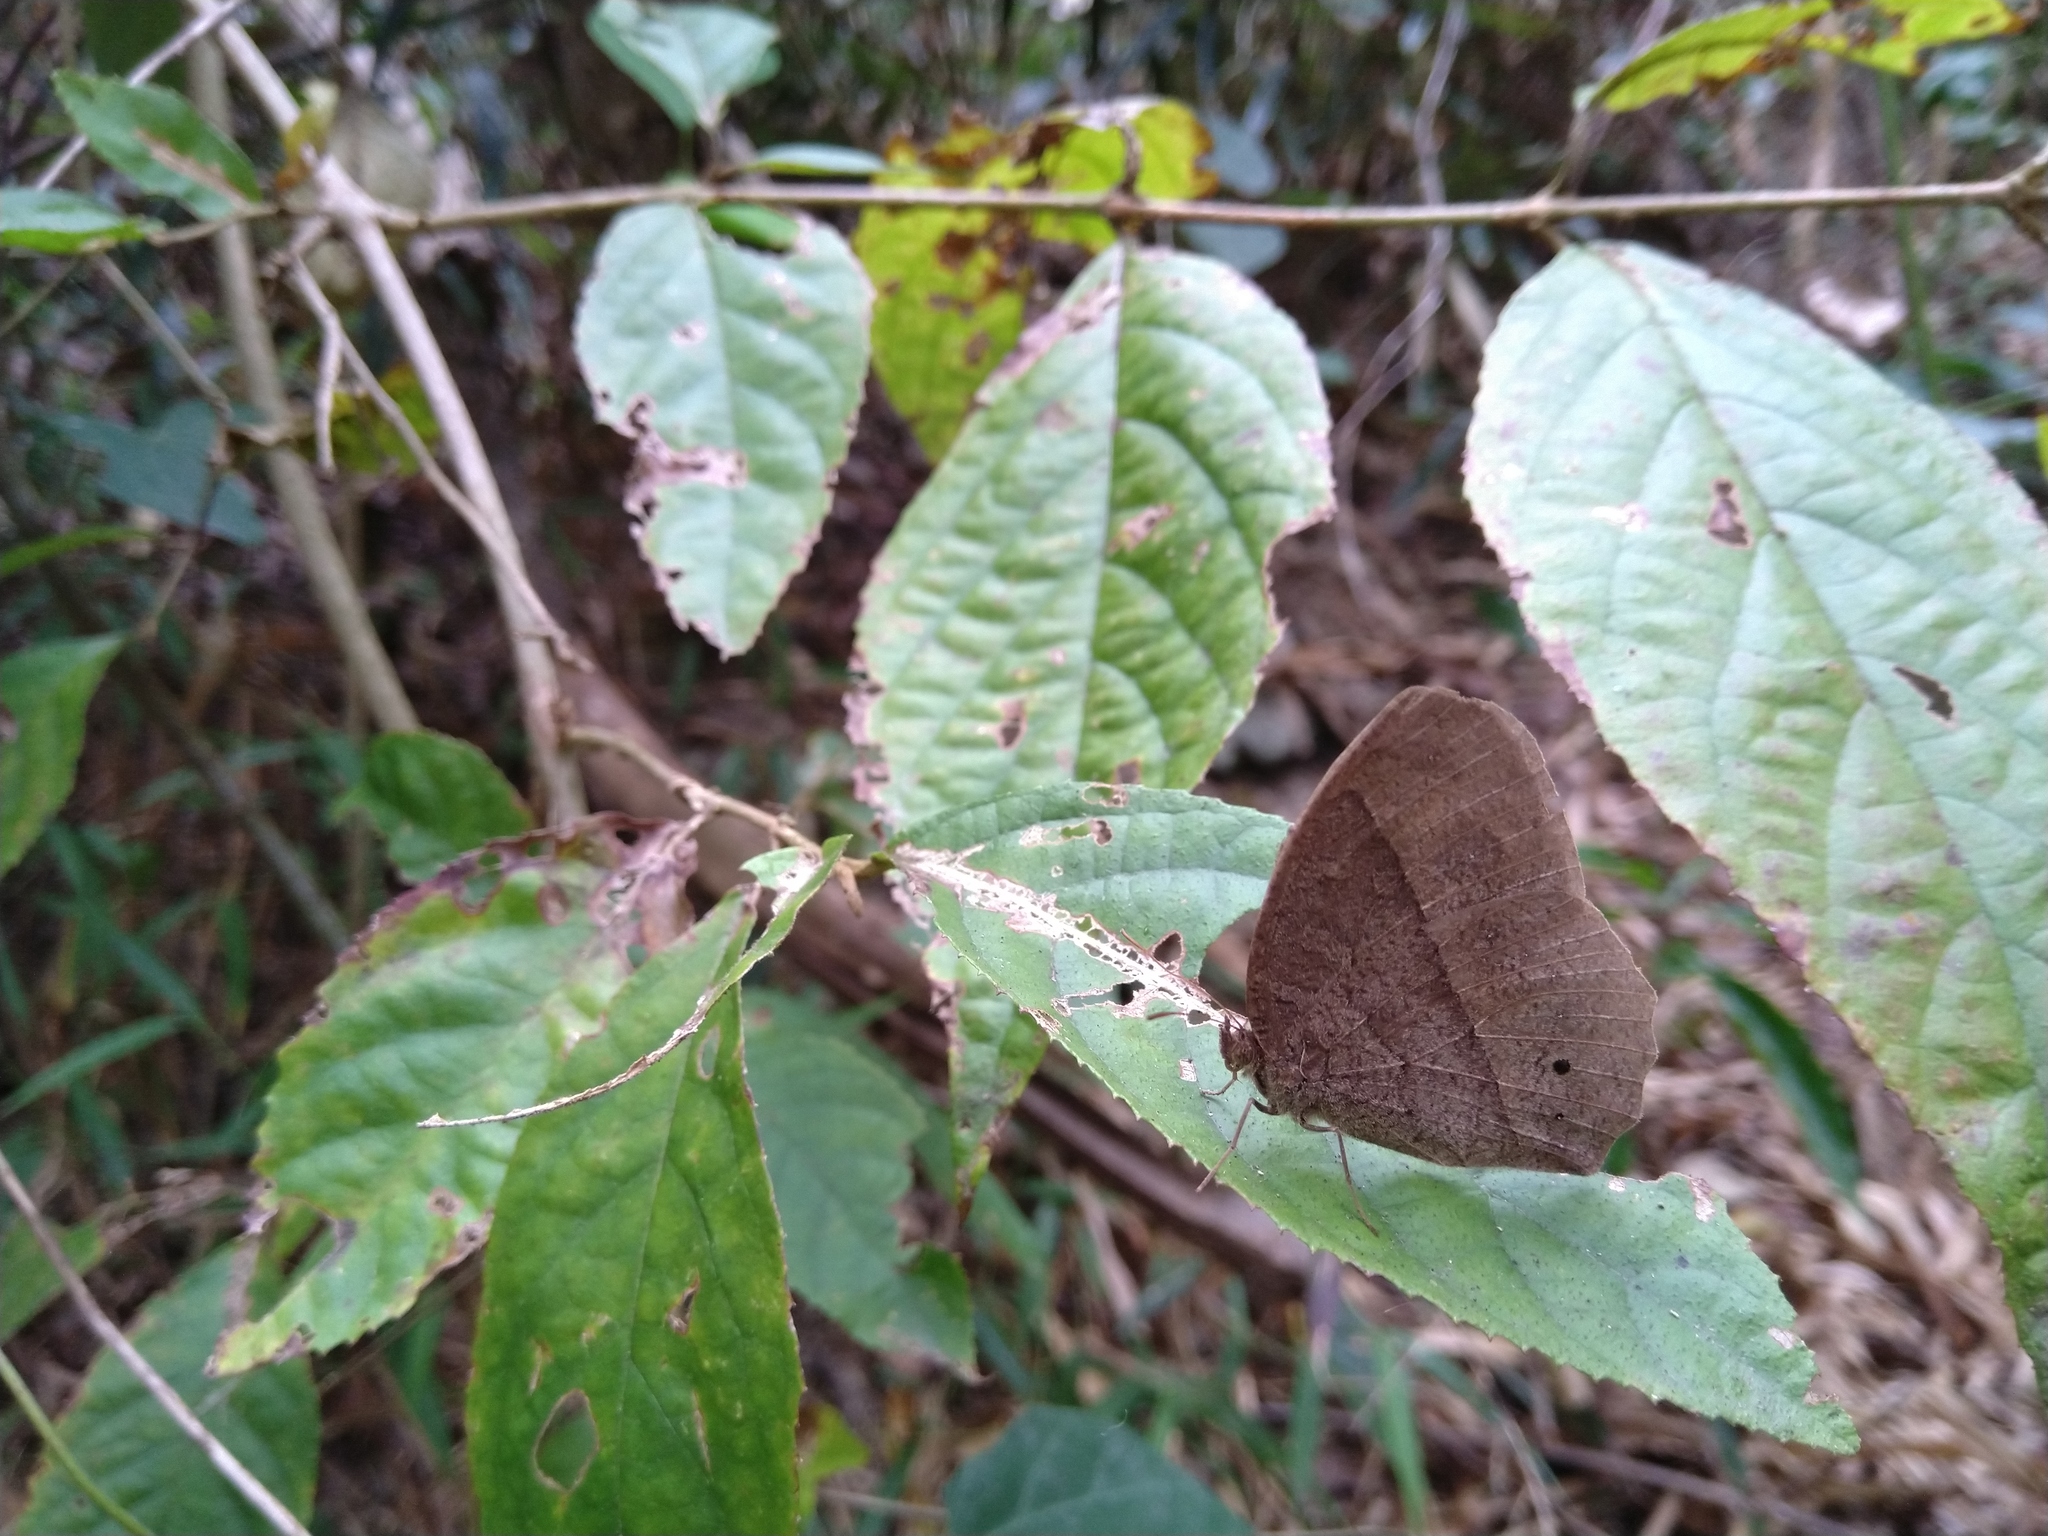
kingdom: Animalia
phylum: Arthropoda
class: Insecta
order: Lepidoptera
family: Nymphalidae
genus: Mycalesis
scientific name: Mycalesis horsfieldii
